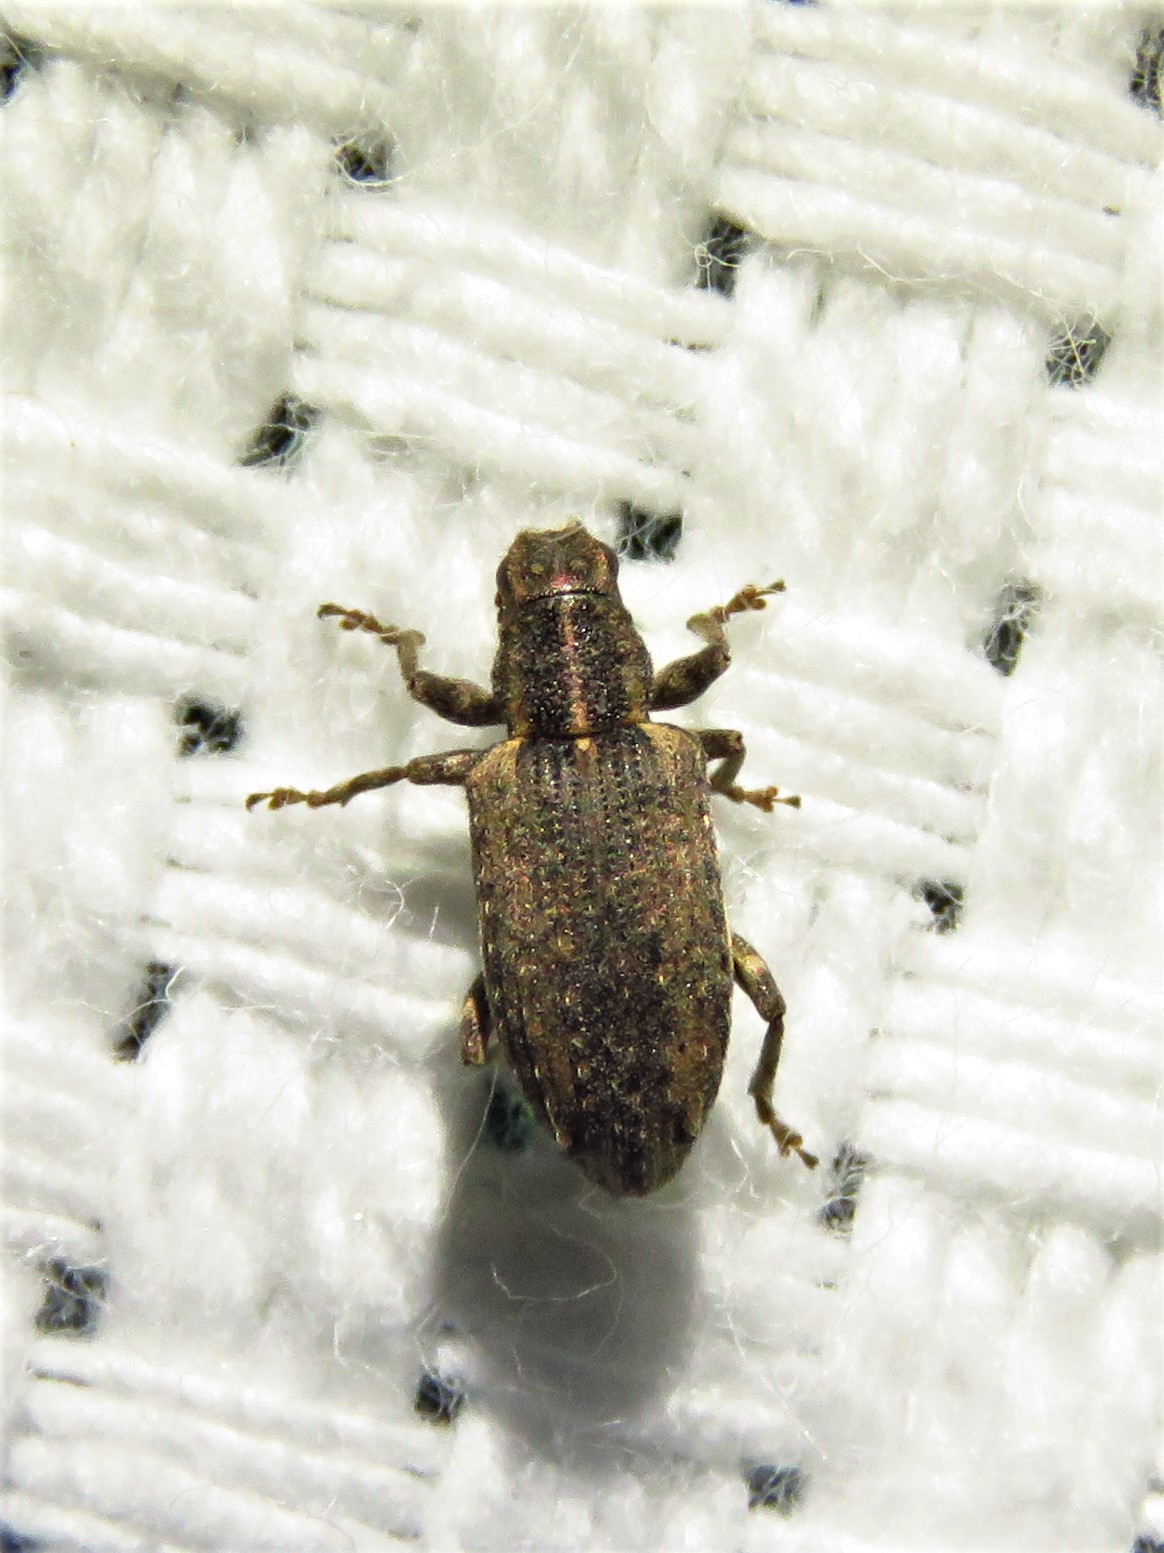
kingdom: Animalia
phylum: Arthropoda
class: Insecta
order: Coleoptera
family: Curculionidae
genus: Sitones
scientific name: Sitones californius
